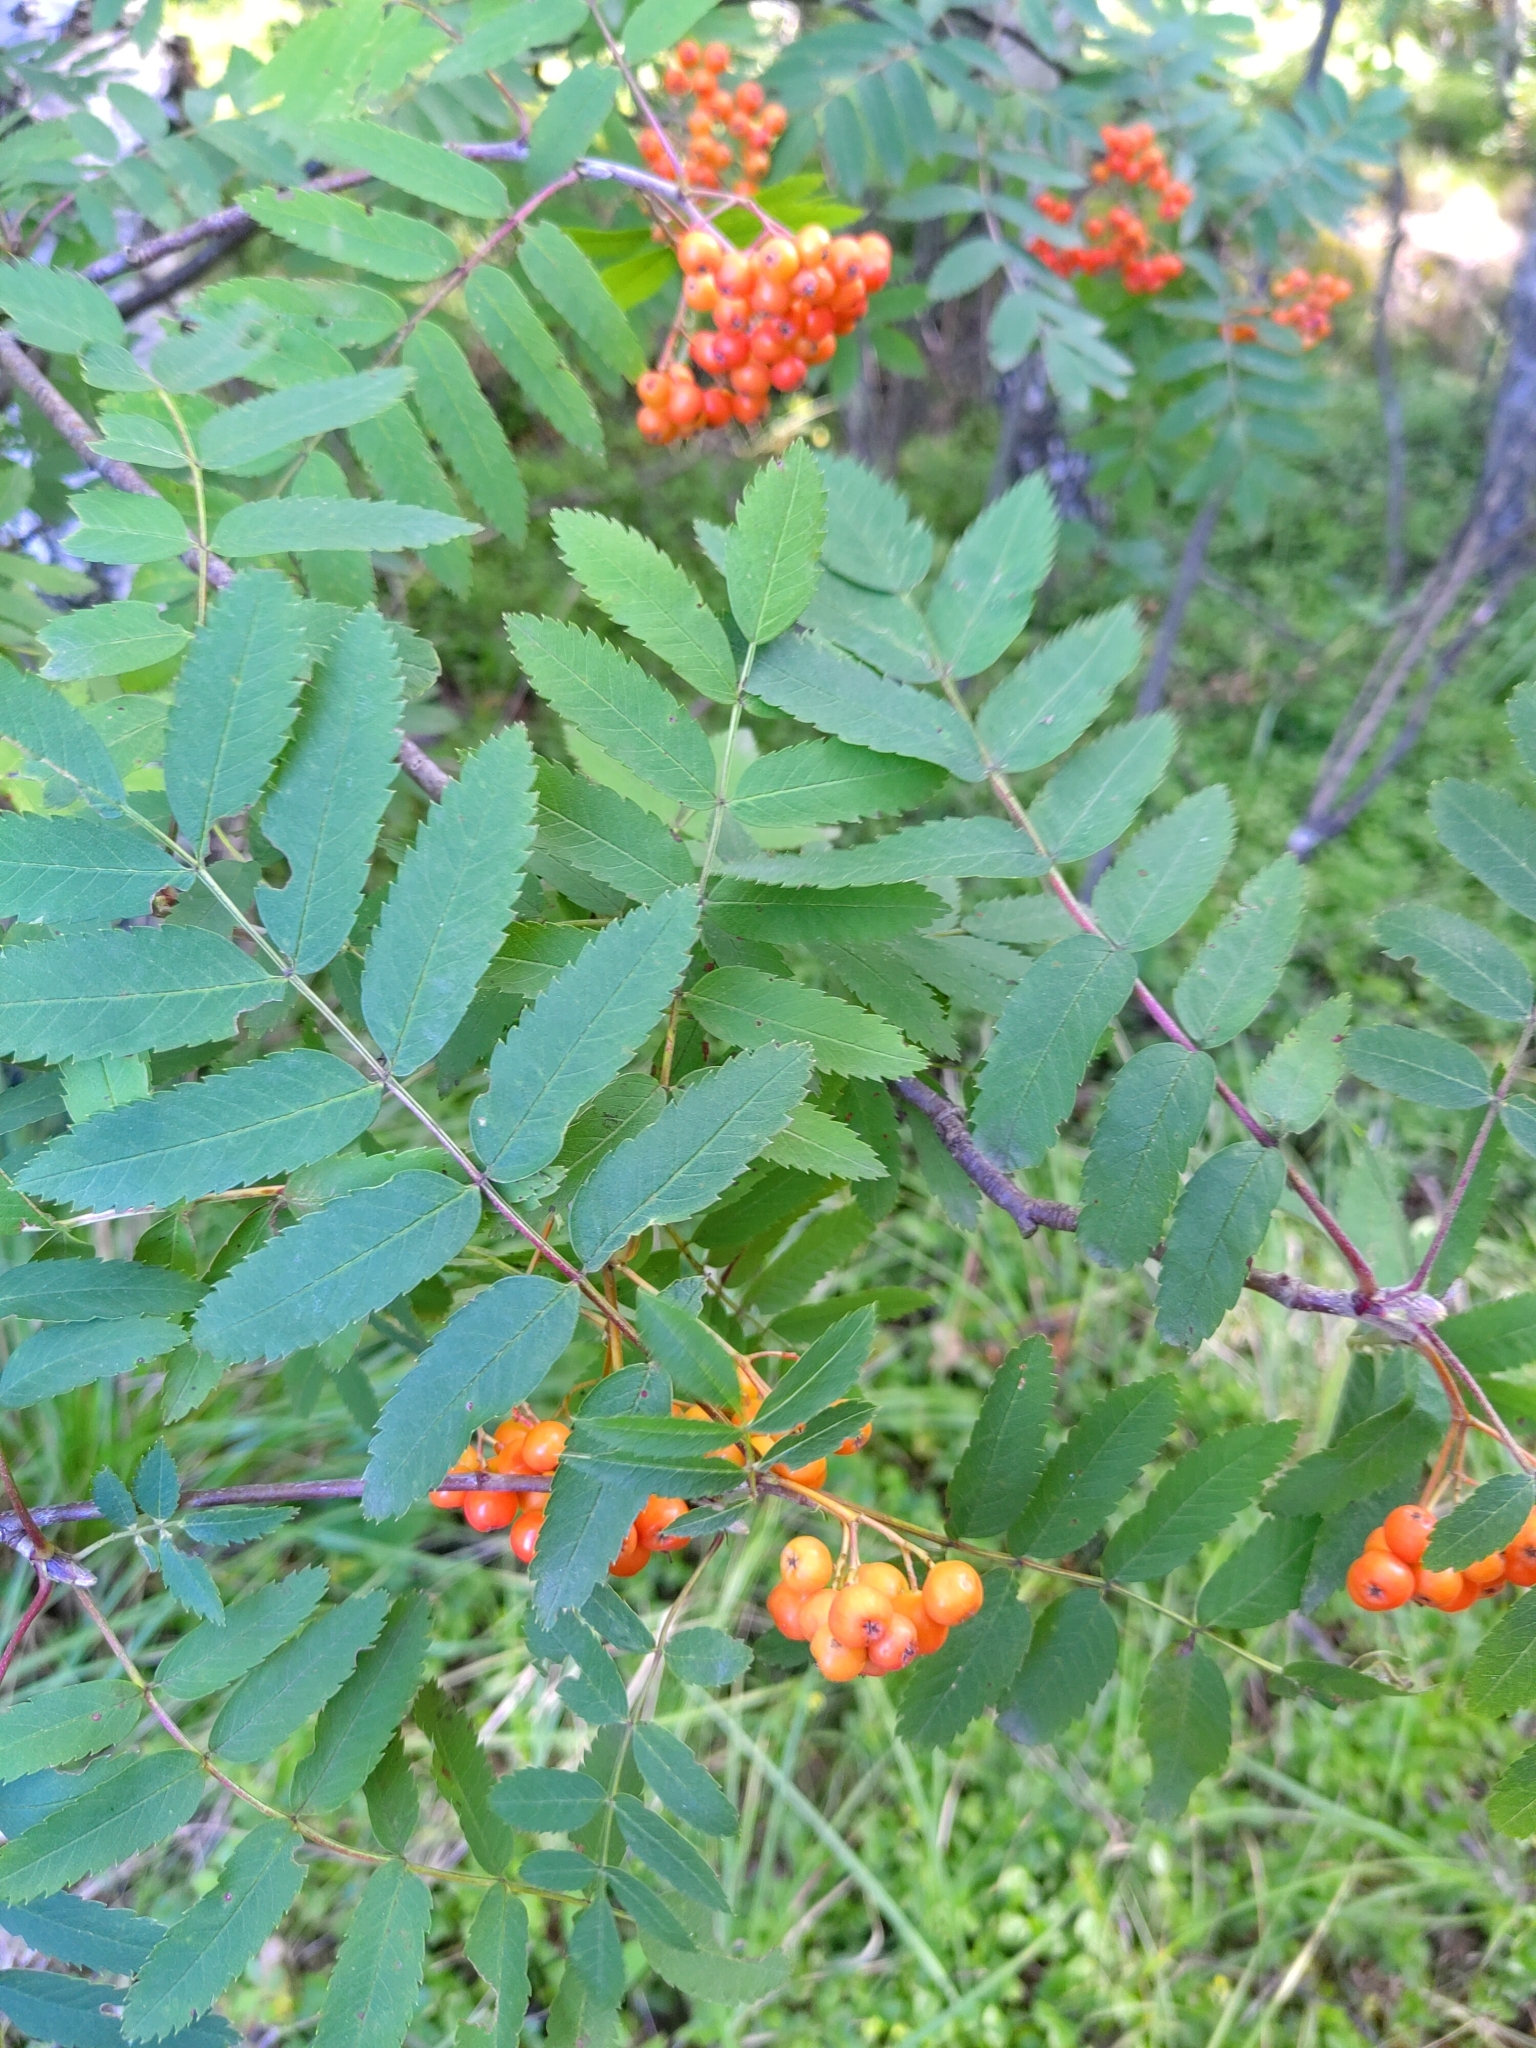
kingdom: Plantae
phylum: Tracheophyta
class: Magnoliopsida
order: Rosales
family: Rosaceae
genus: Sorbus
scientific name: Sorbus aucuparia
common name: Rowan
